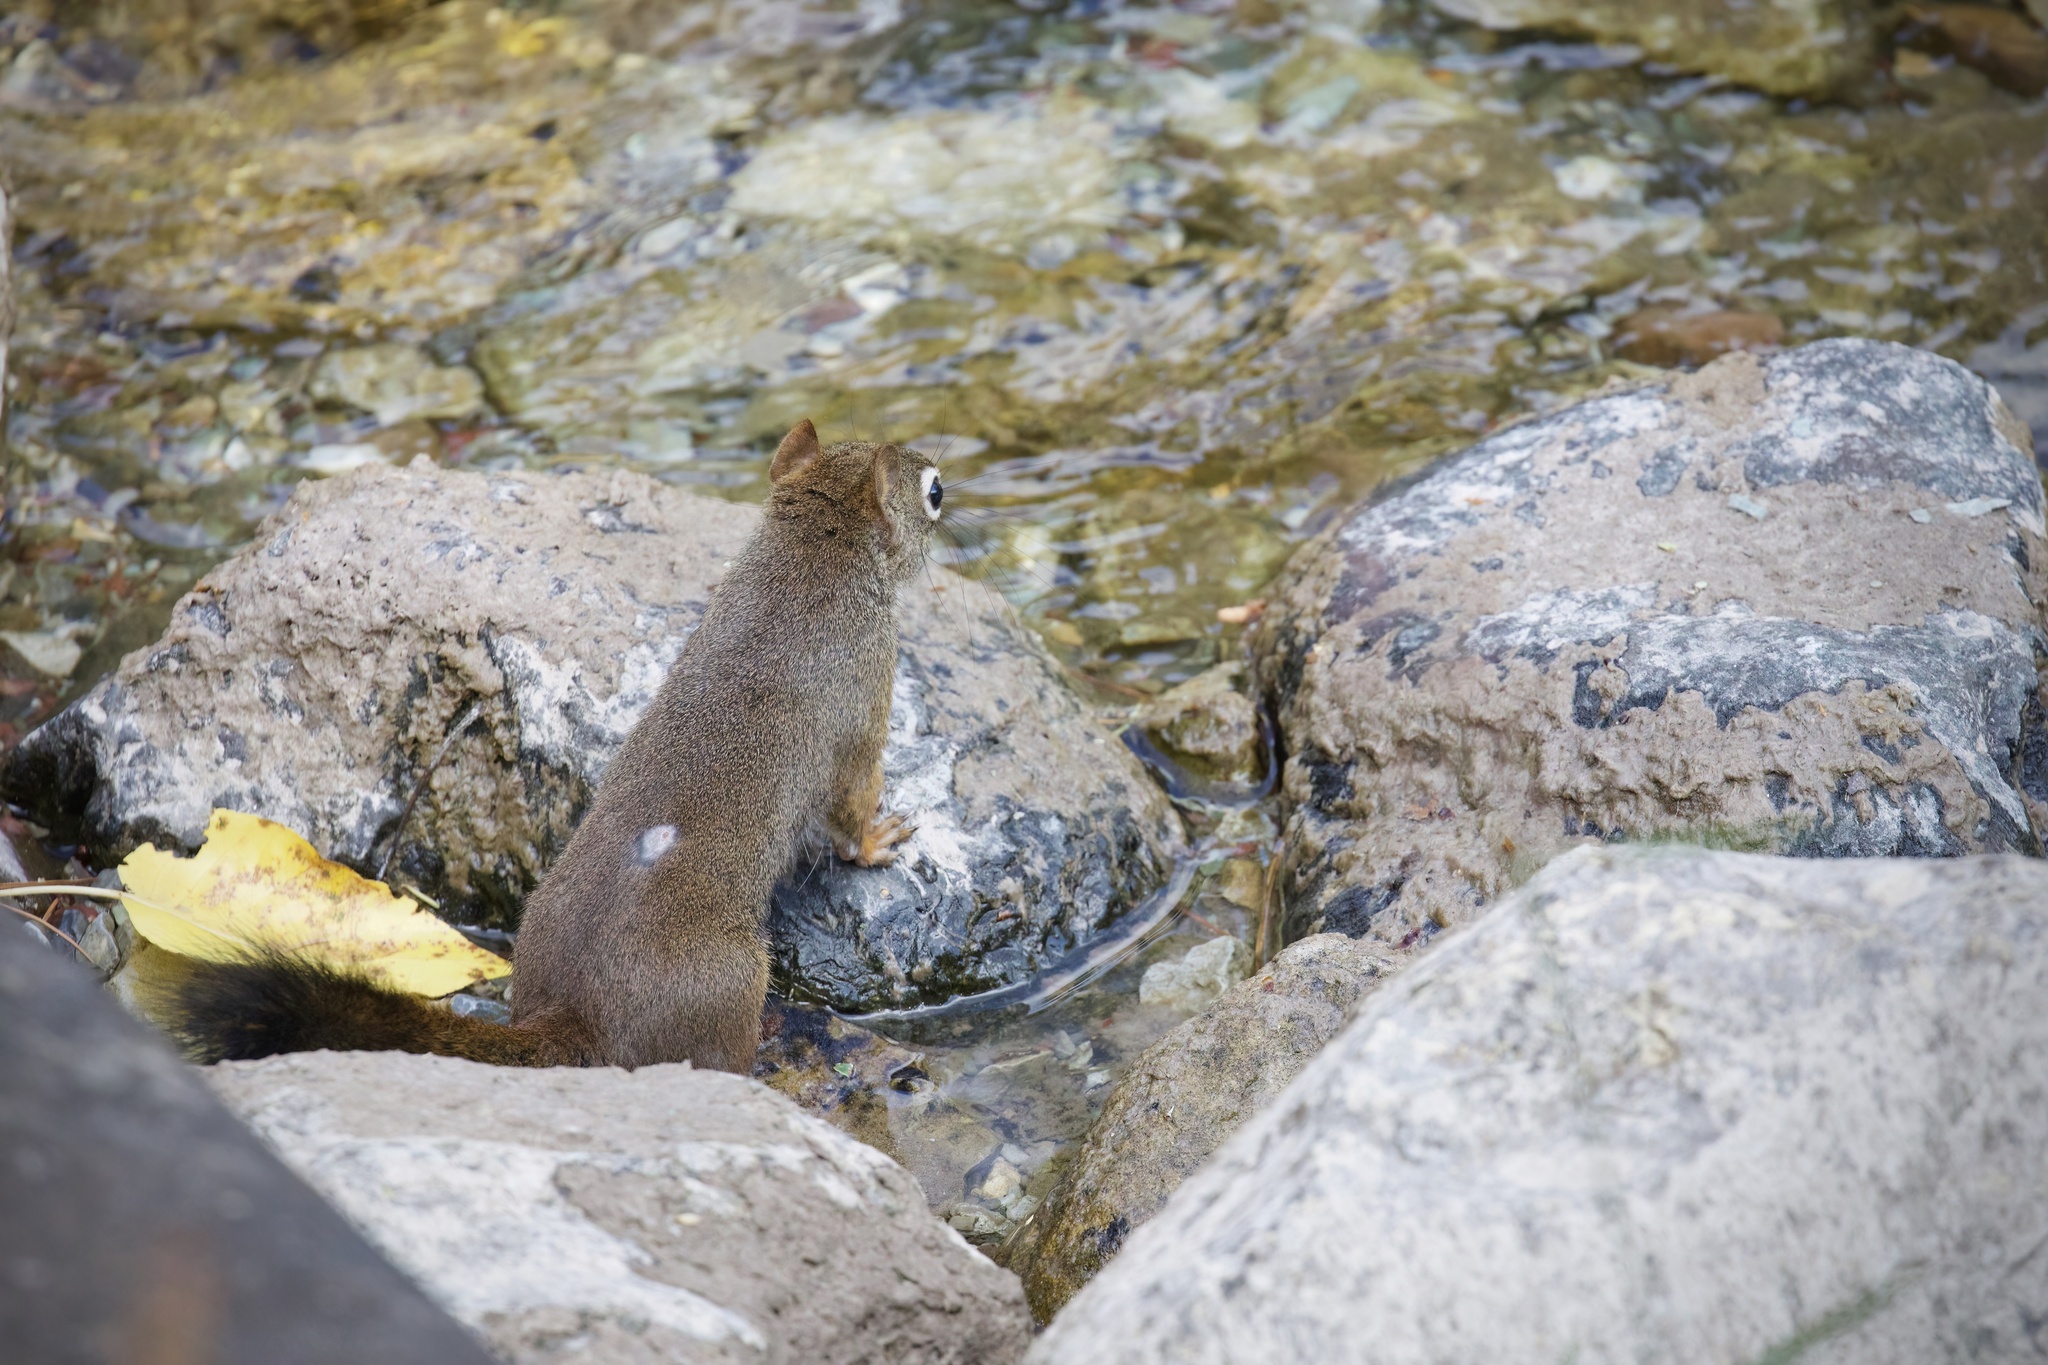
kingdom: Animalia
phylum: Chordata
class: Mammalia
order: Rodentia
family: Sciuridae
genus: Tamiasciurus
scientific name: Tamiasciurus hudsonicus
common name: Red squirrel
